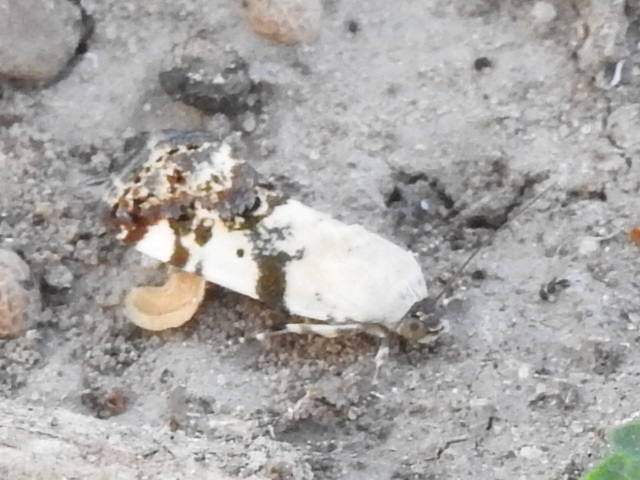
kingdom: Animalia
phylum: Arthropoda
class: Insecta
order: Lepidoptera
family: Noctuidae
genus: Acontia
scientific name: Acontia aprica
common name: Nun
